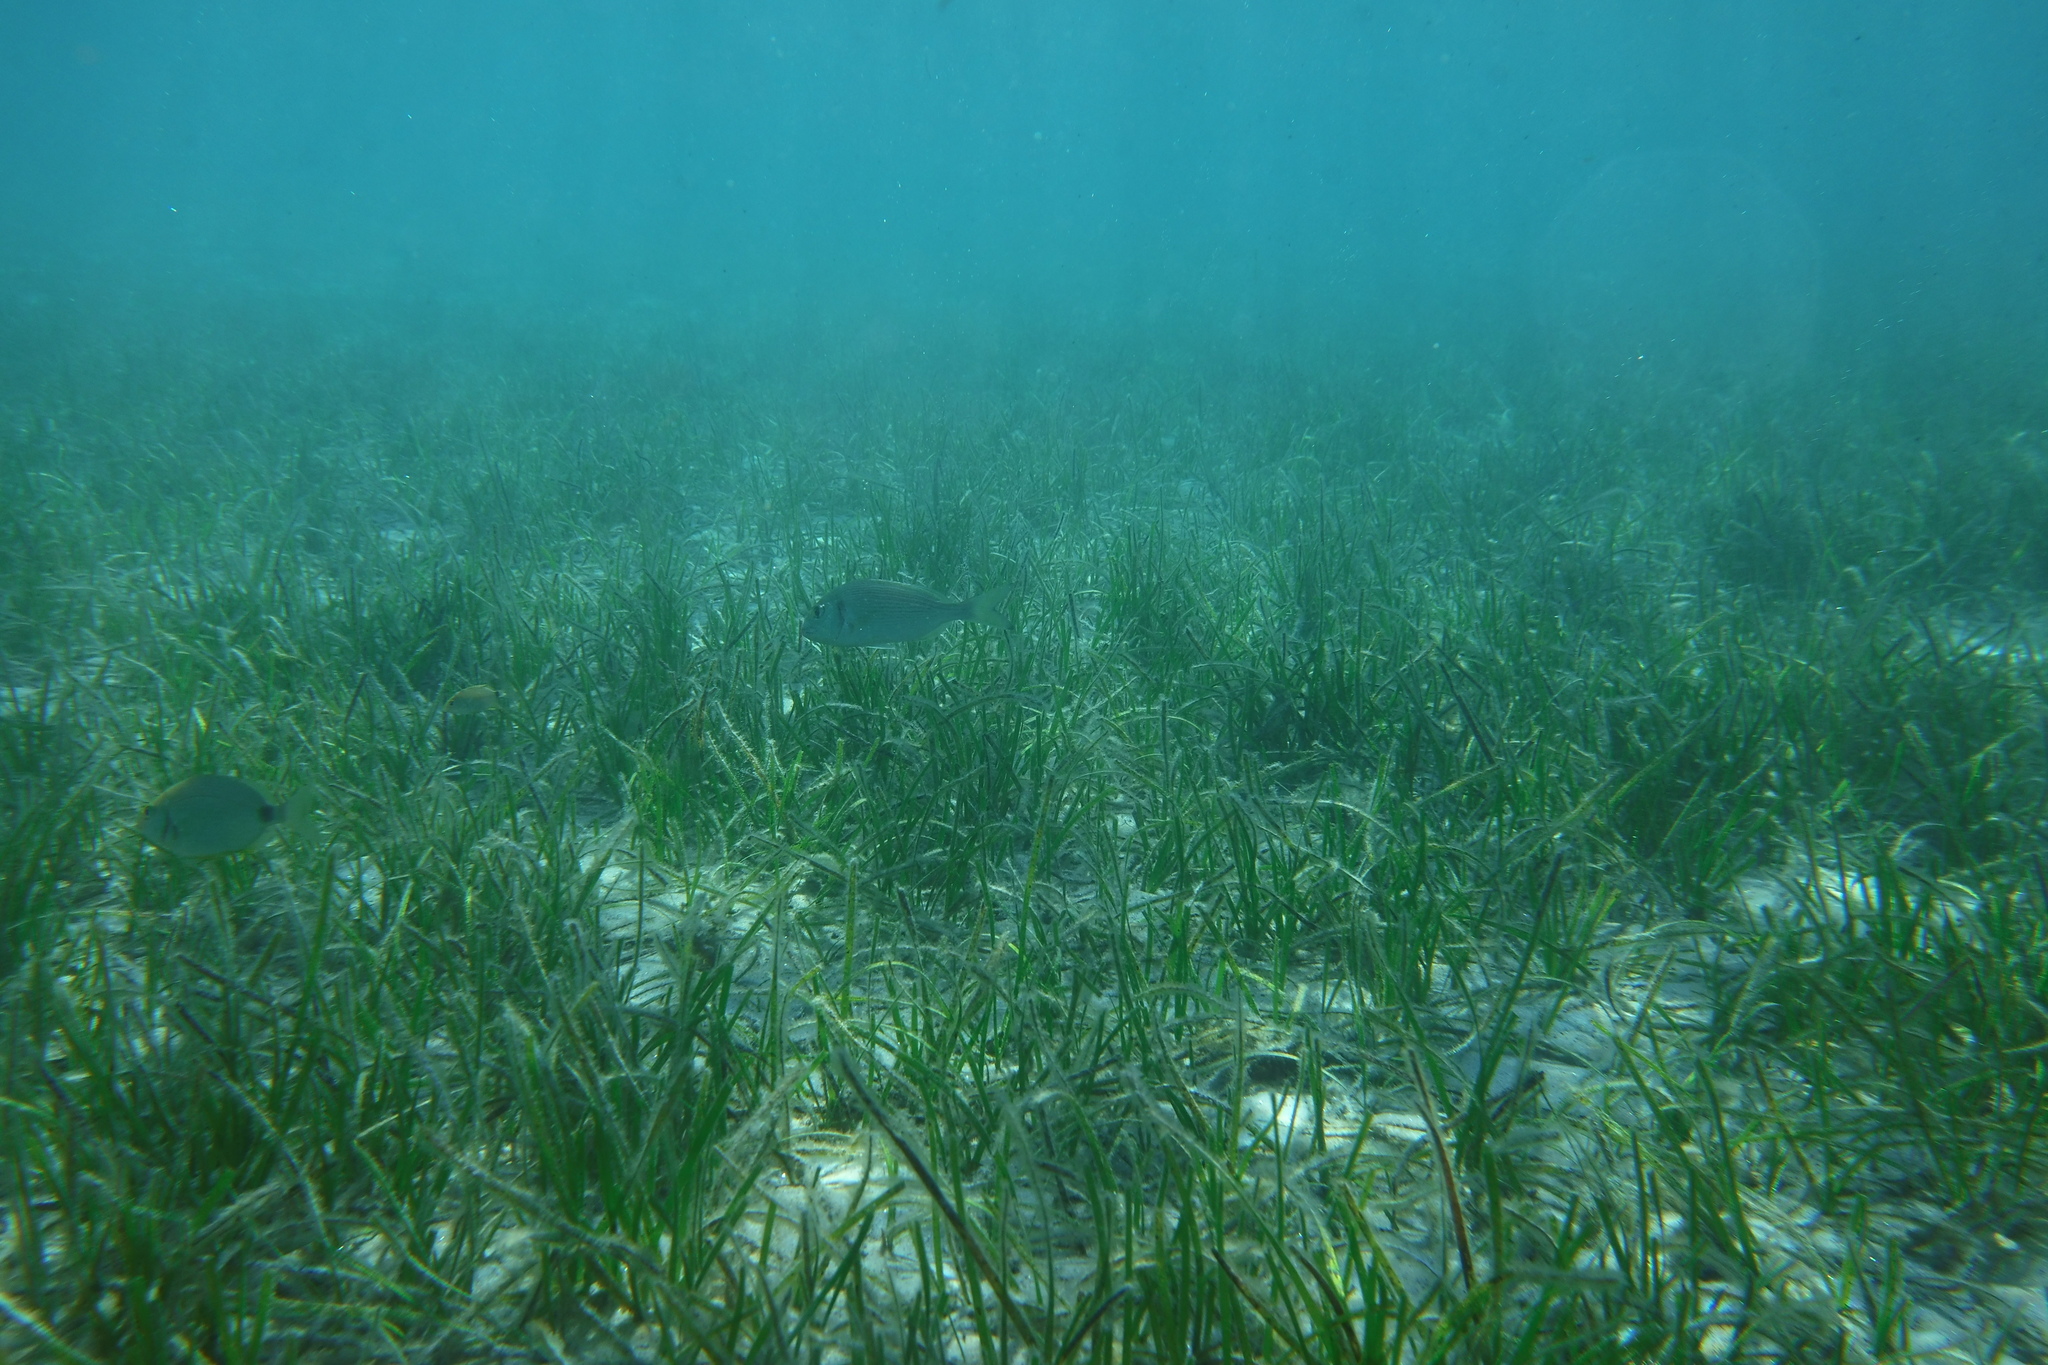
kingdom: Animalia
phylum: Chordata
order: Perciformes
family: Sparidae
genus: Sparus
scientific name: Sparus aurata
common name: Gilthead
